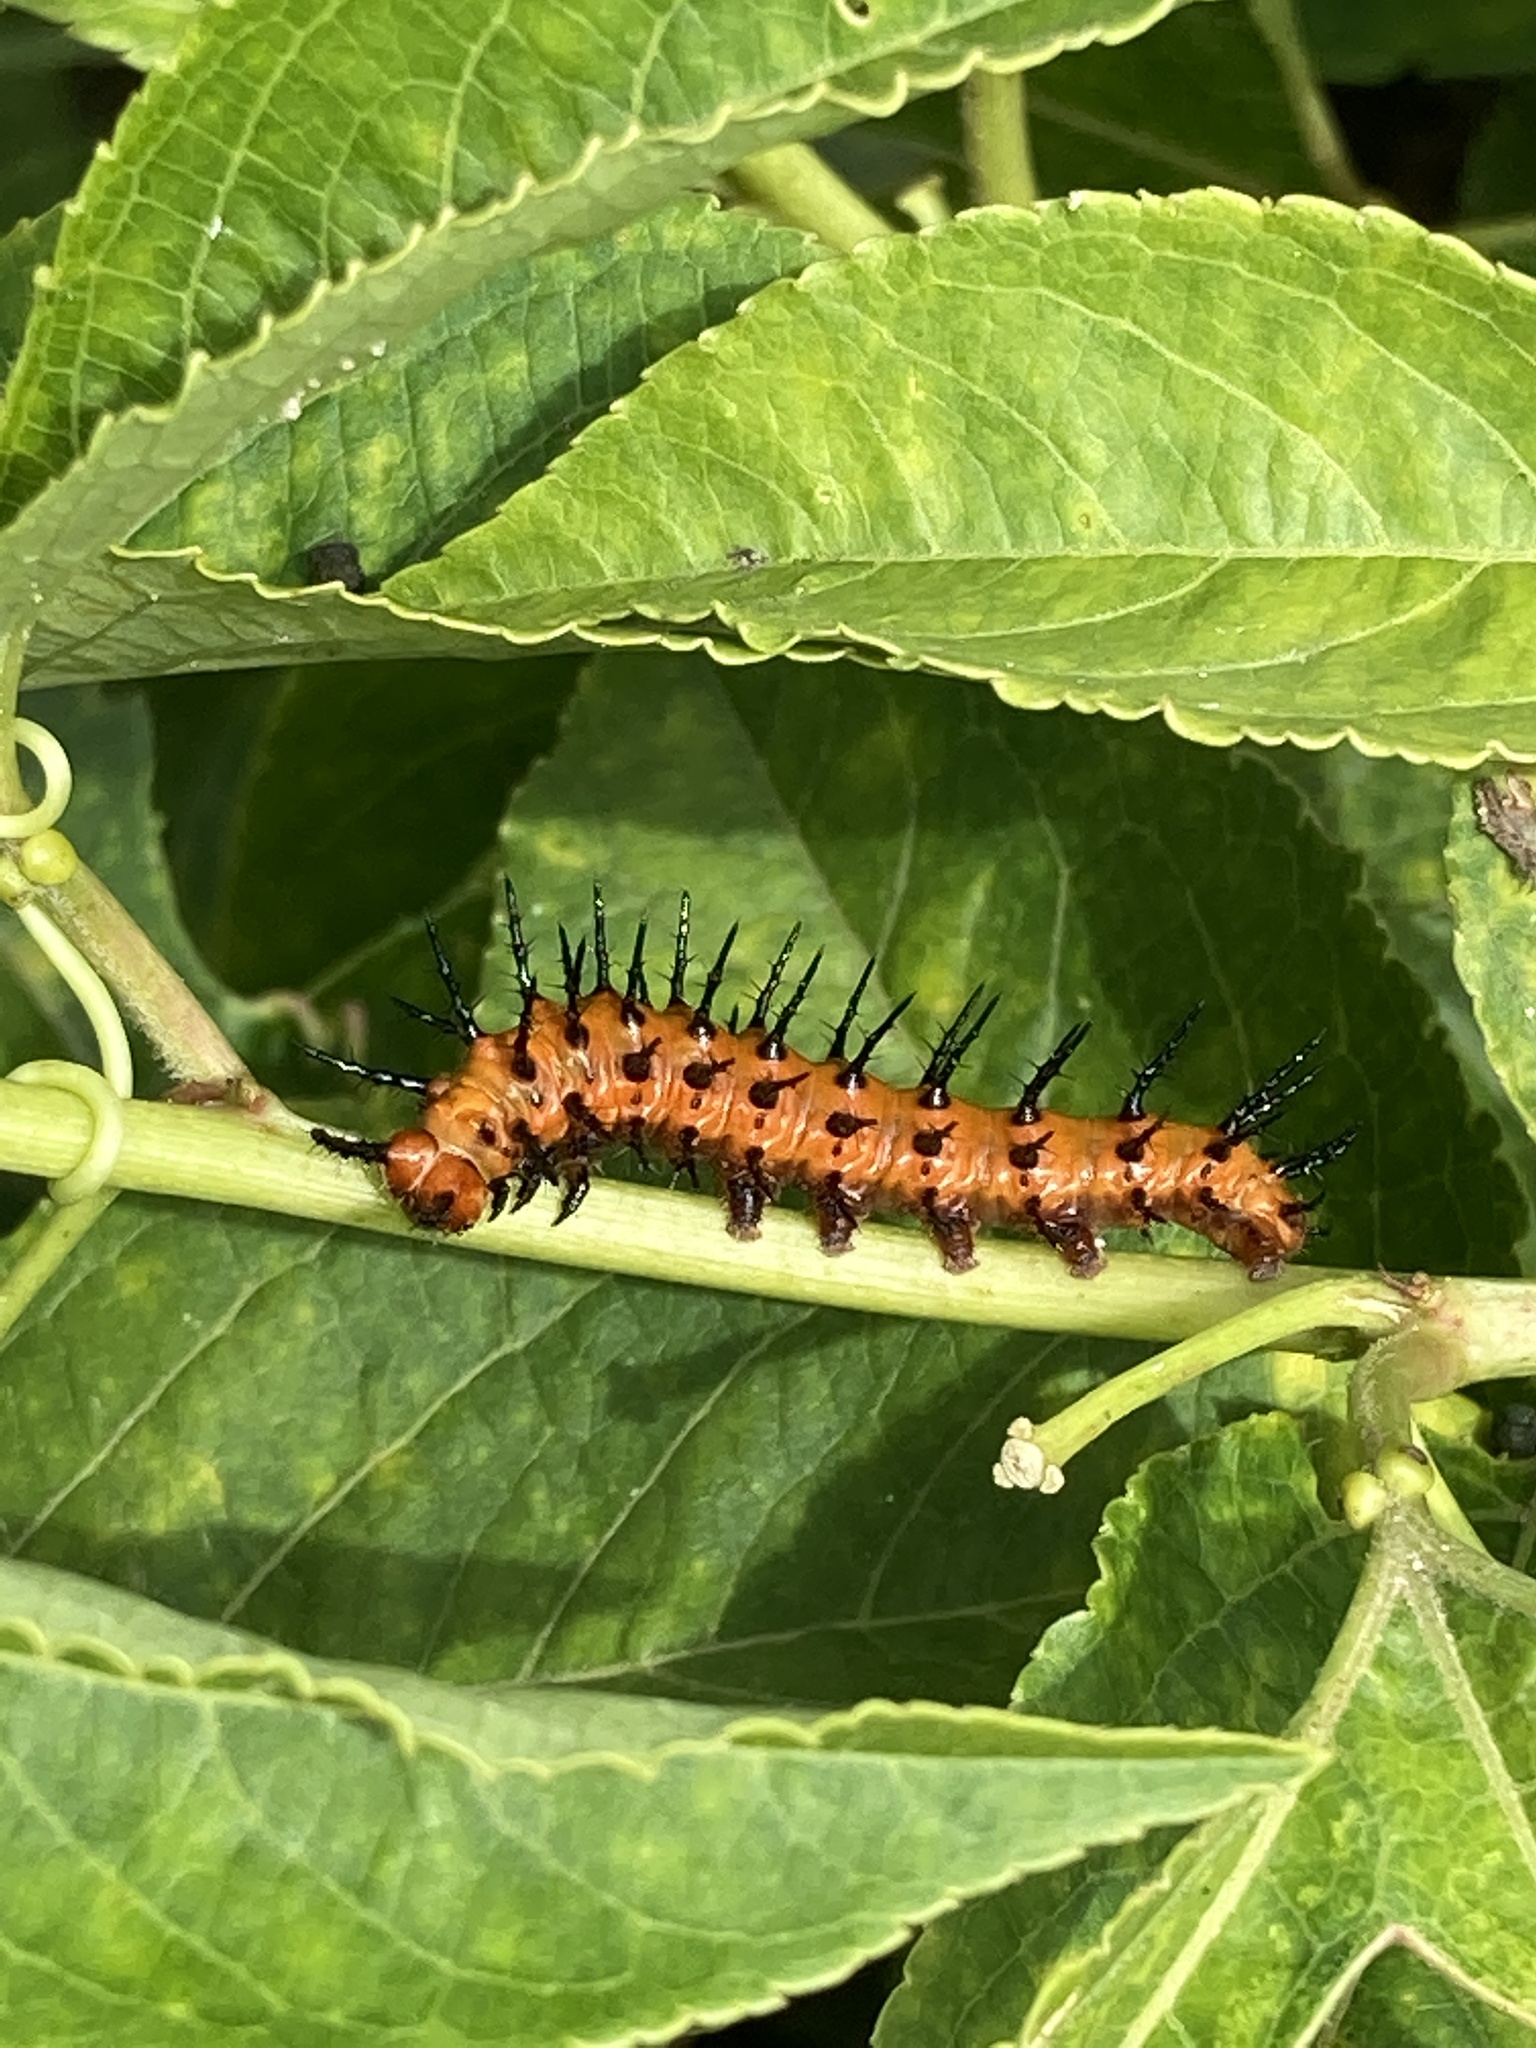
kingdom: Animalia
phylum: Arthropoda
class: Insecta
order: Lepidoptera
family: Nymphalidae
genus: Dione
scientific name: Dione vanillae
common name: Gulf fritillary
